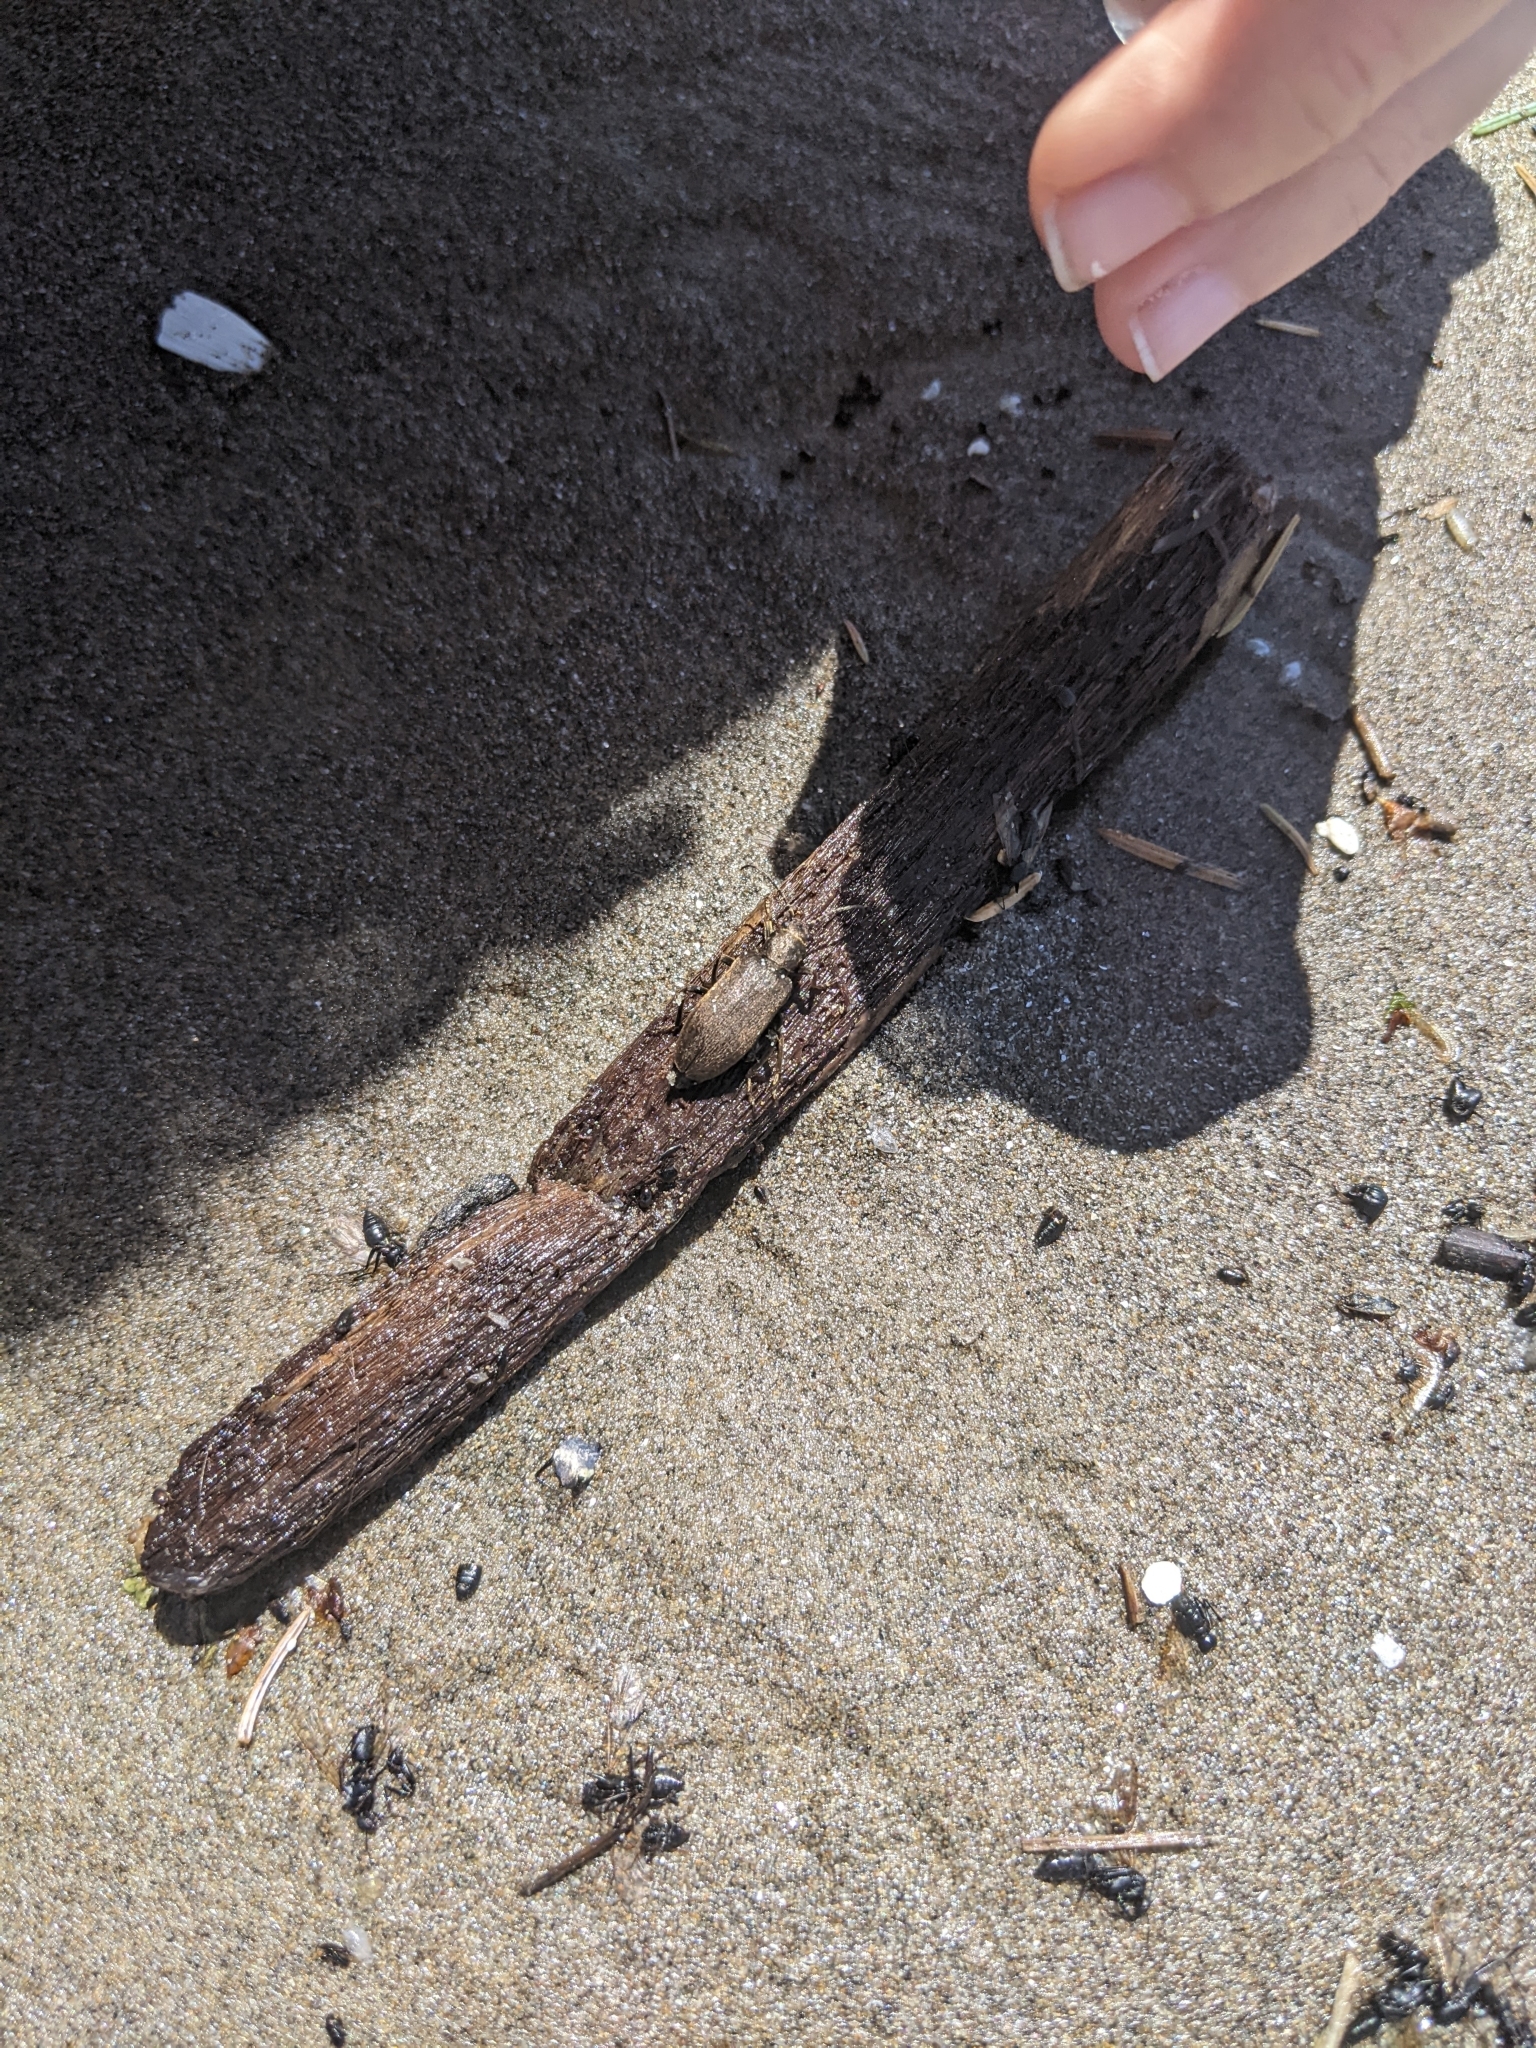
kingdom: Animalia
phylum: Arthropoda
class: Insecta
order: Coleoptera
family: Oedemeridae
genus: Ditylus
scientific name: Ditylus quadricollis
